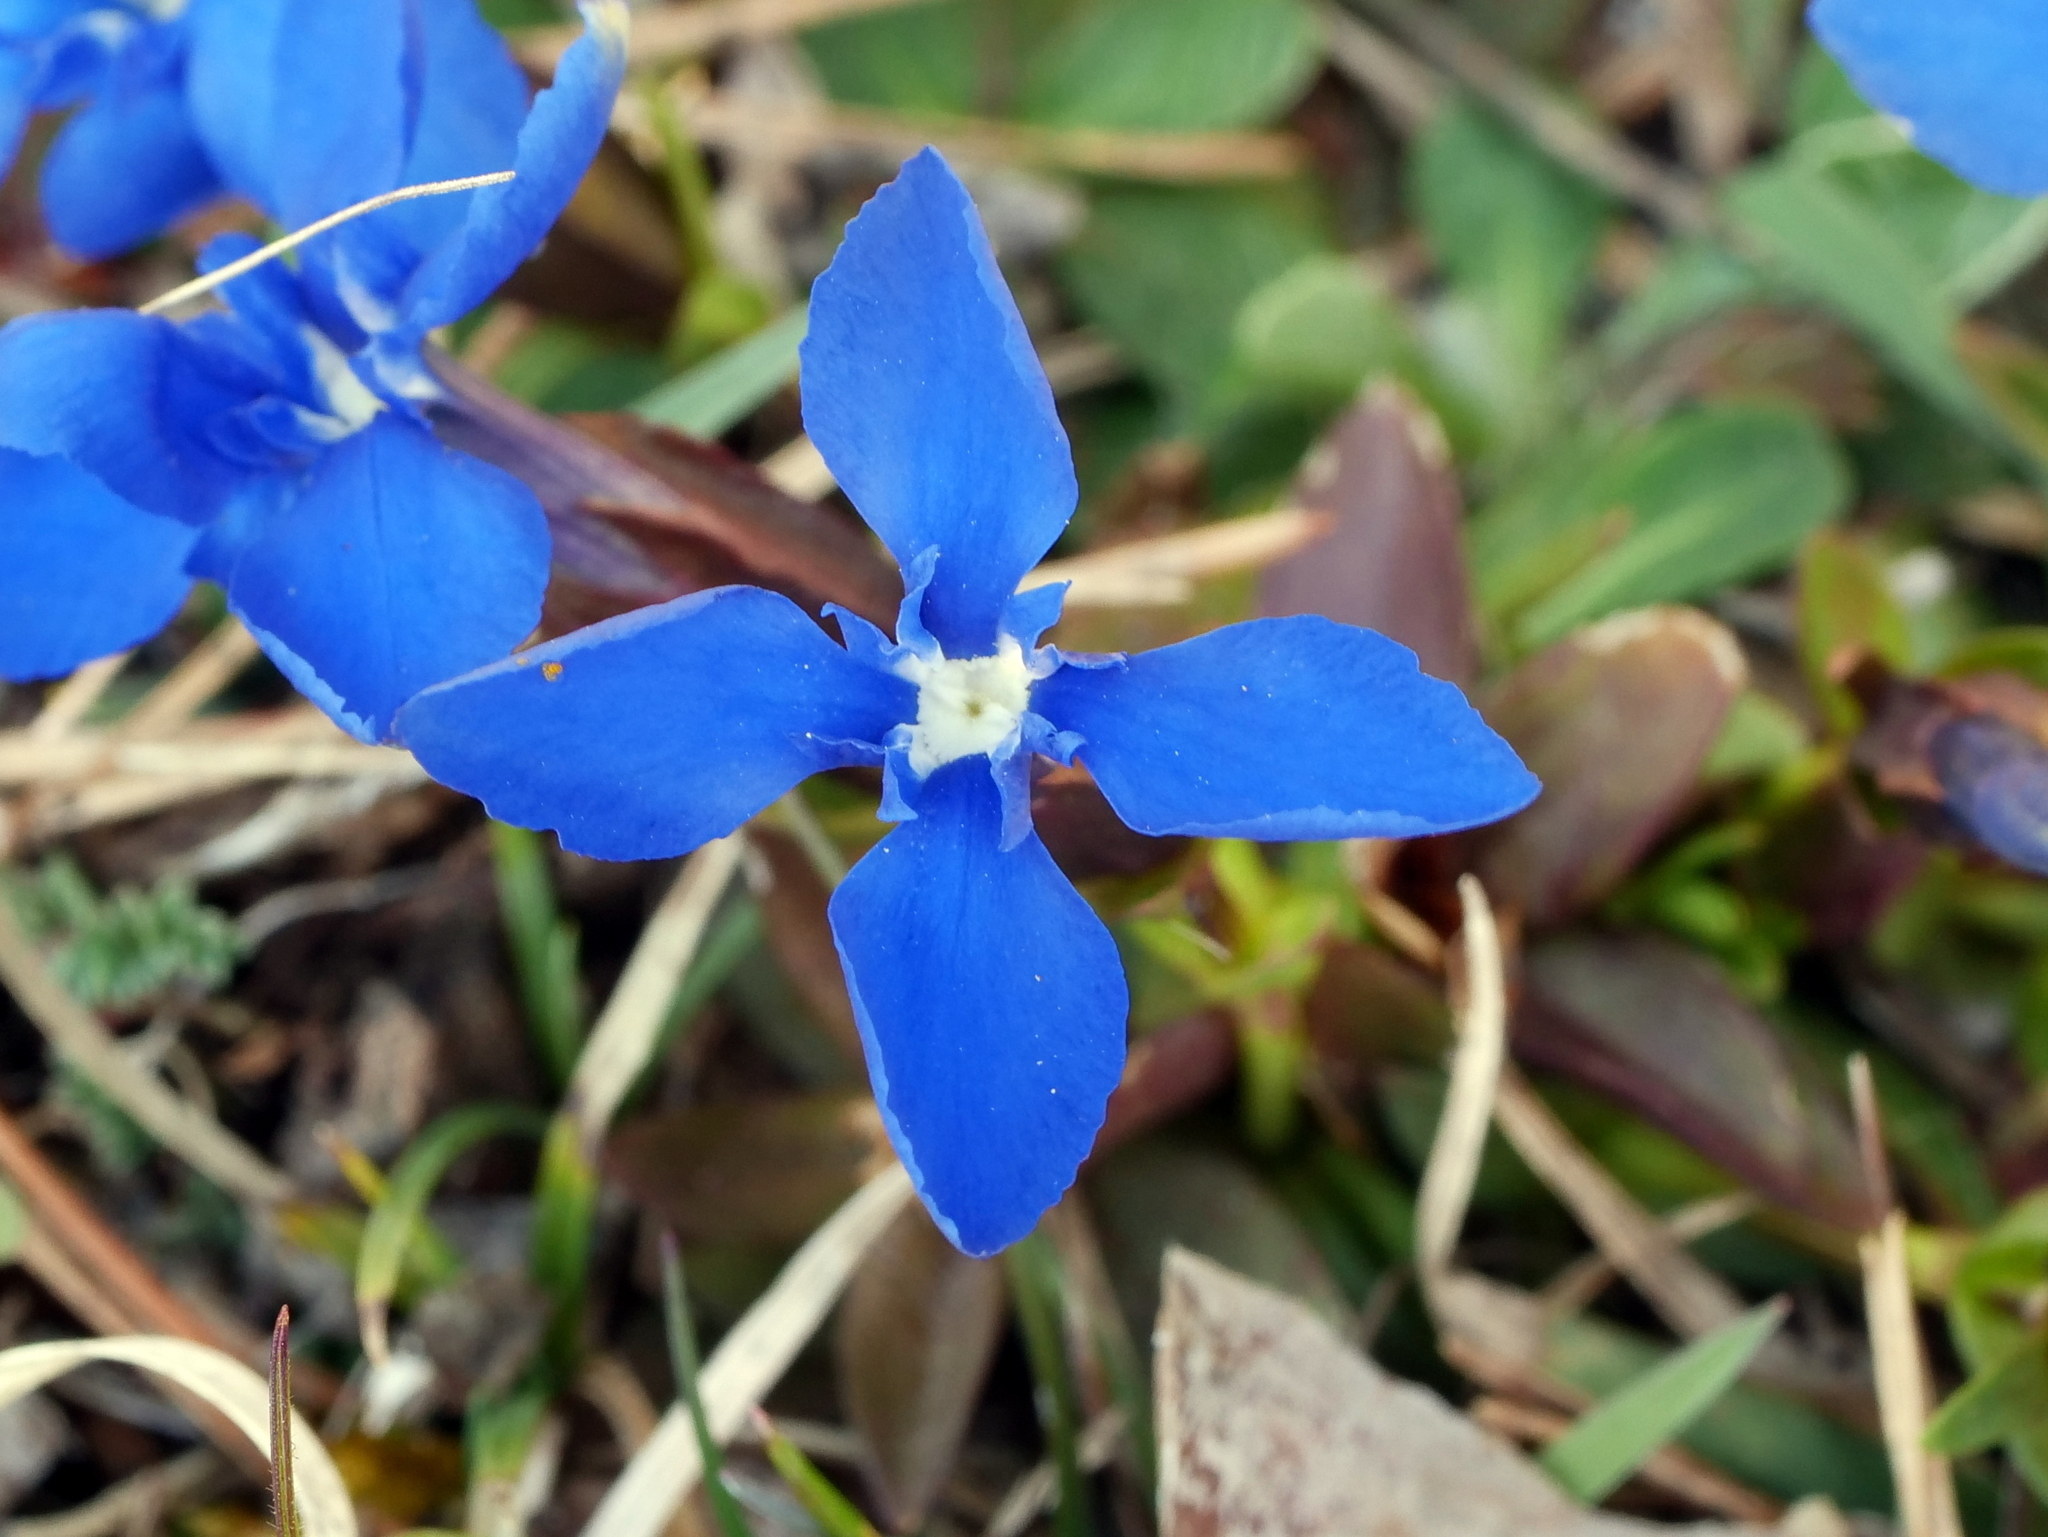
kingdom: Plantae
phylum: Tracheophyta
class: Magnoliopsida
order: Gentianales
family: Gentianaceae
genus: Gentiana
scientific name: Gentiana verna
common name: Spring gentian
